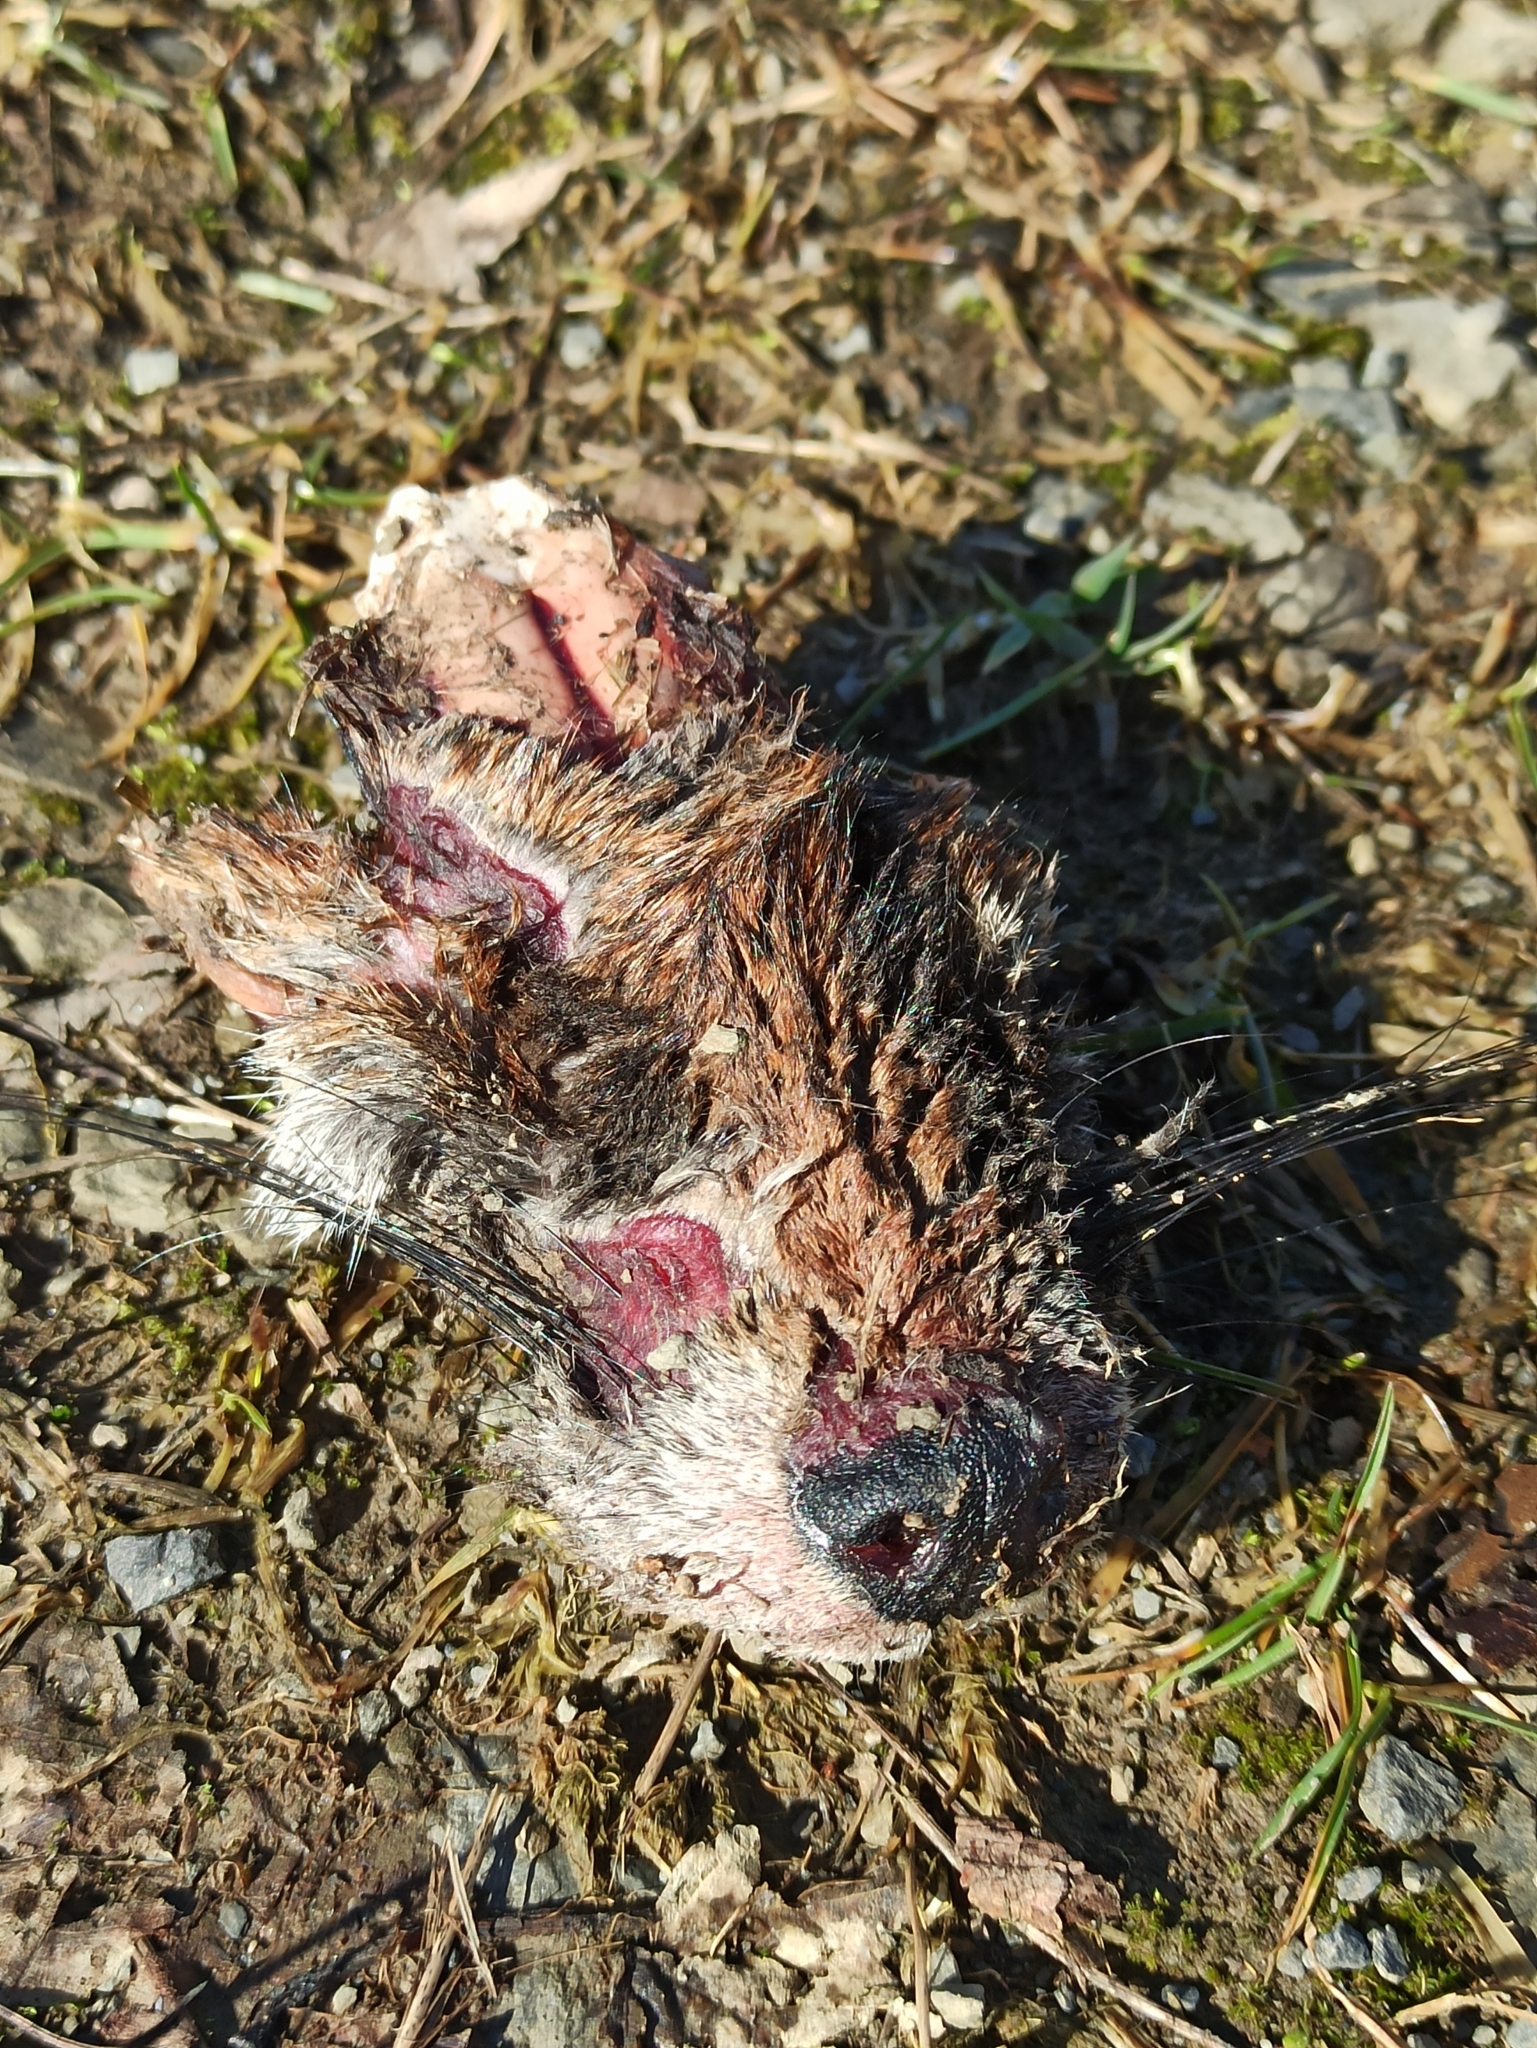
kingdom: Animalia
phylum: Chordata
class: Mammalia
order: Carnivora
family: Canidae
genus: Vulpes
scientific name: Vulpes vulpes
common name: Red fox
